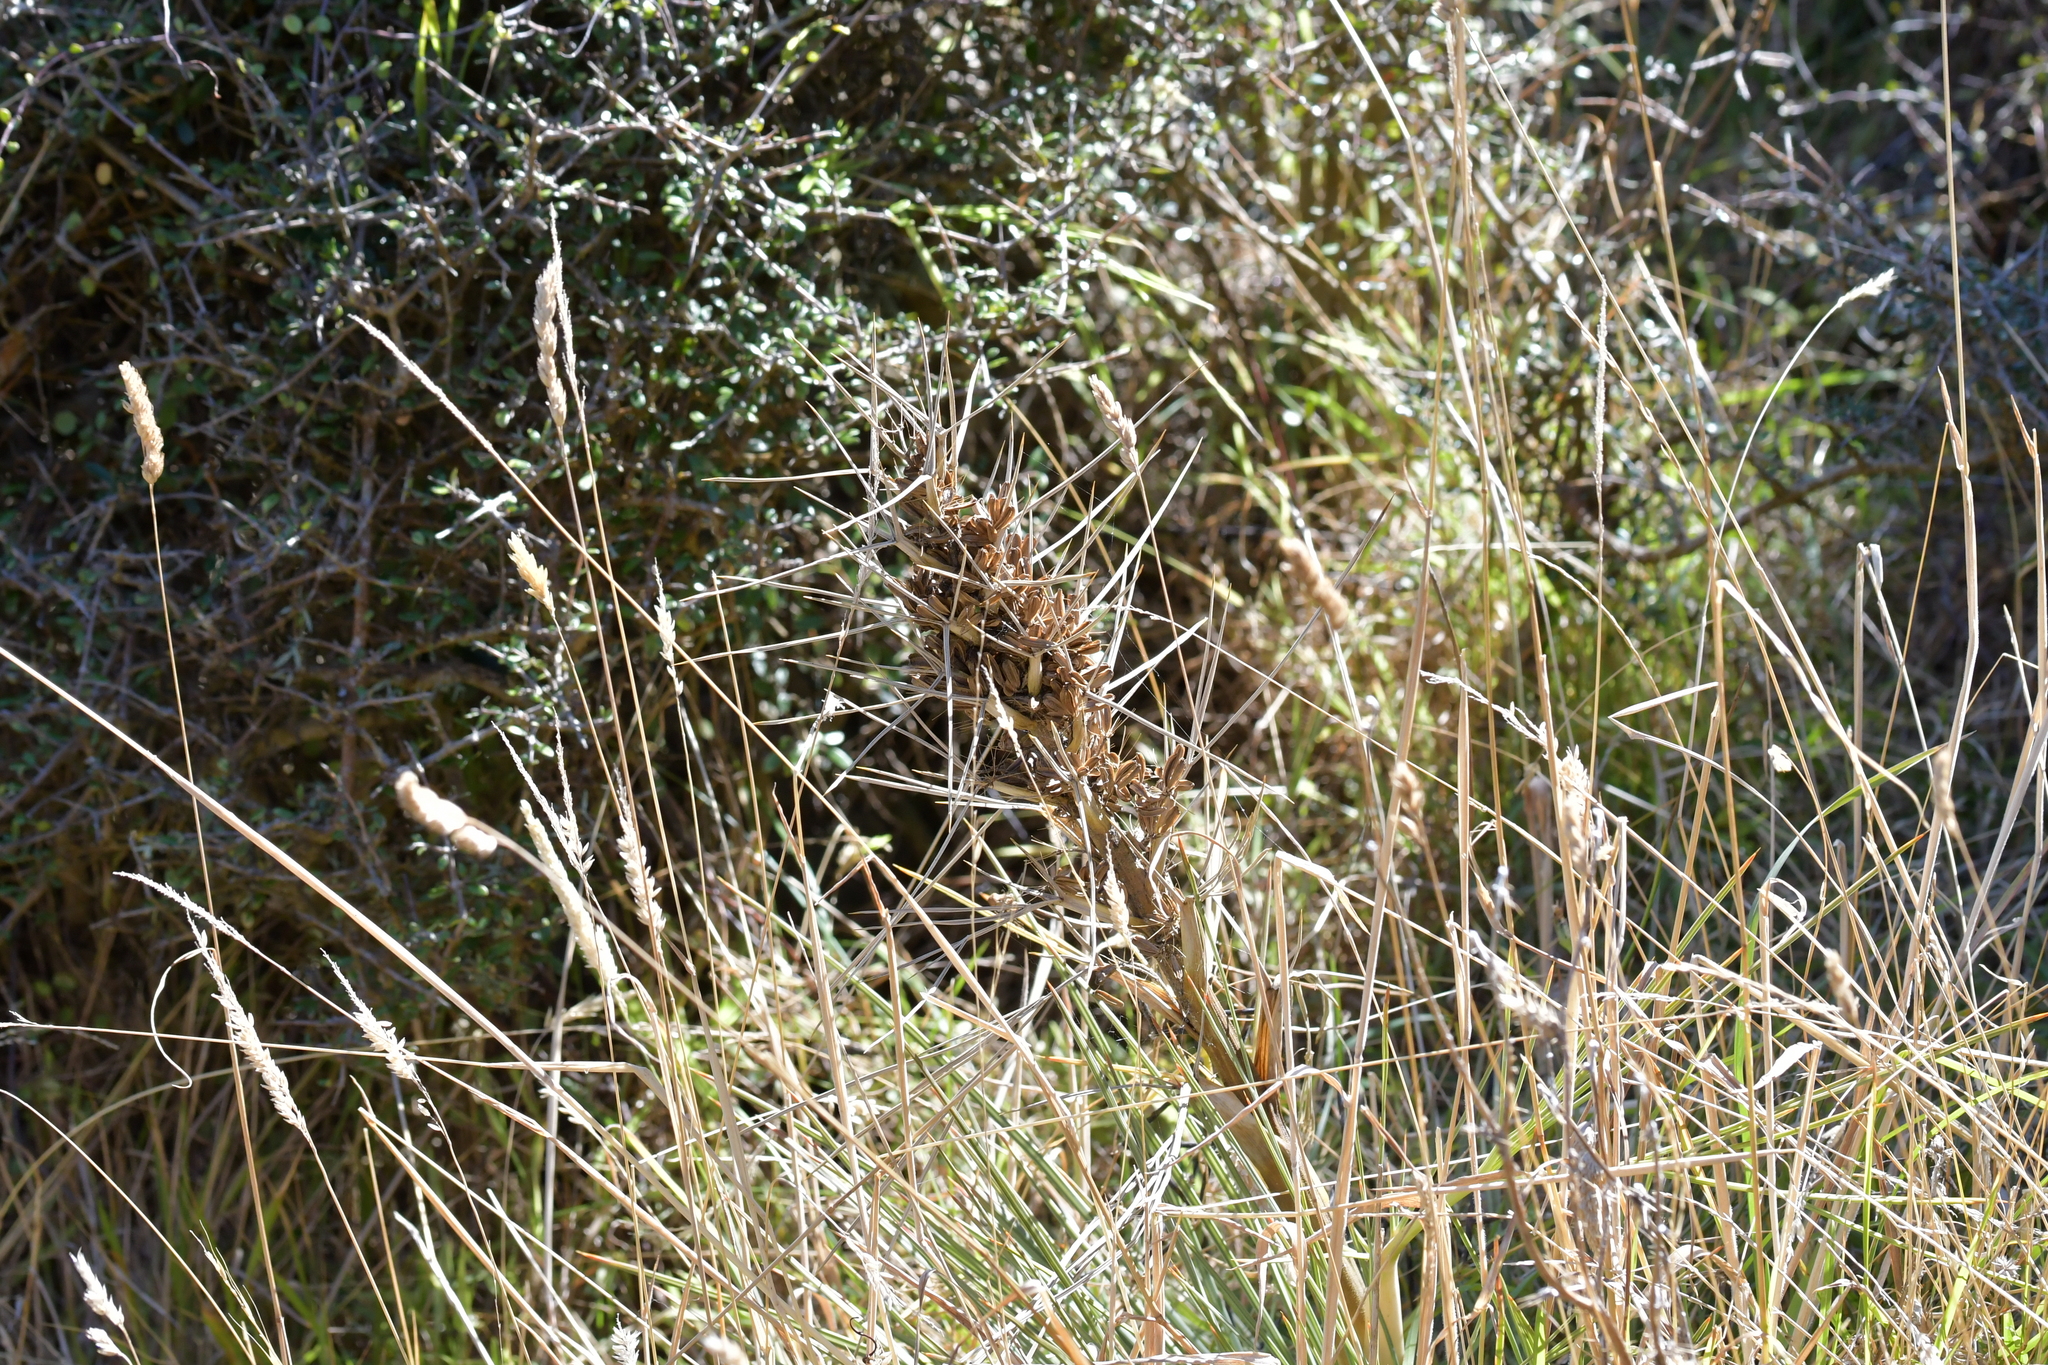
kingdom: Plantae
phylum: Tracheophyta
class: Magnoliopsida
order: Apiales
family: Apiaceae
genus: Aciphylla
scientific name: Aciphylla squarrosa
